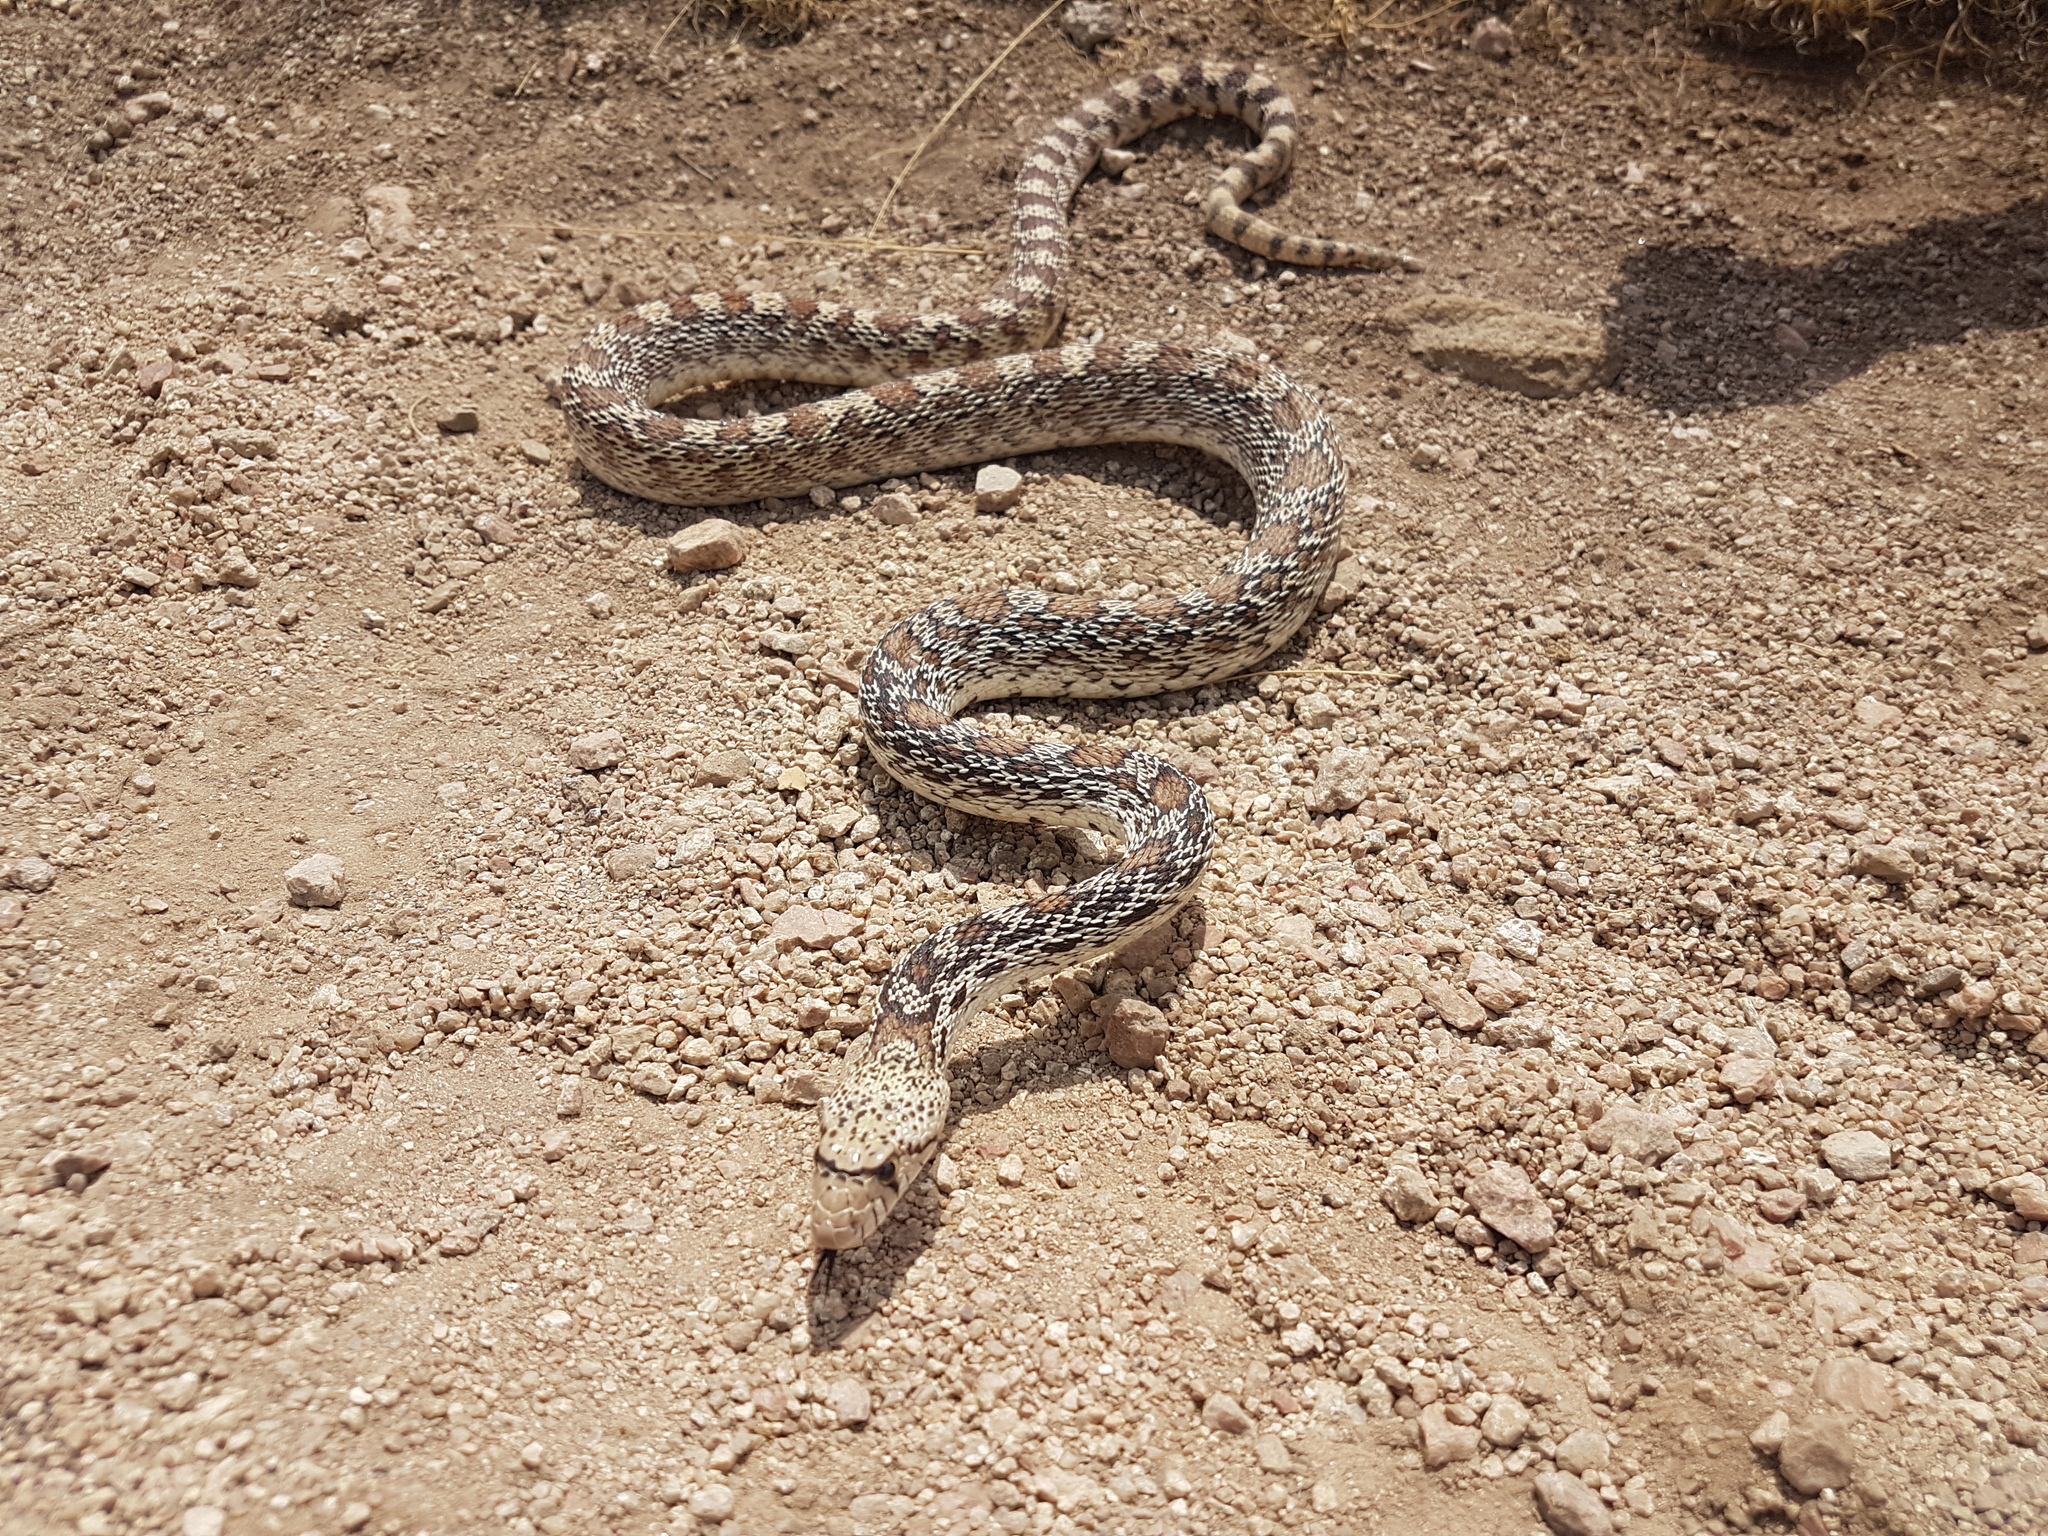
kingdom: Animalia
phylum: Chordata
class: Squamata
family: Colubridae
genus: Pituophis
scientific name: Pituophis catenifer
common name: Gopher snake
